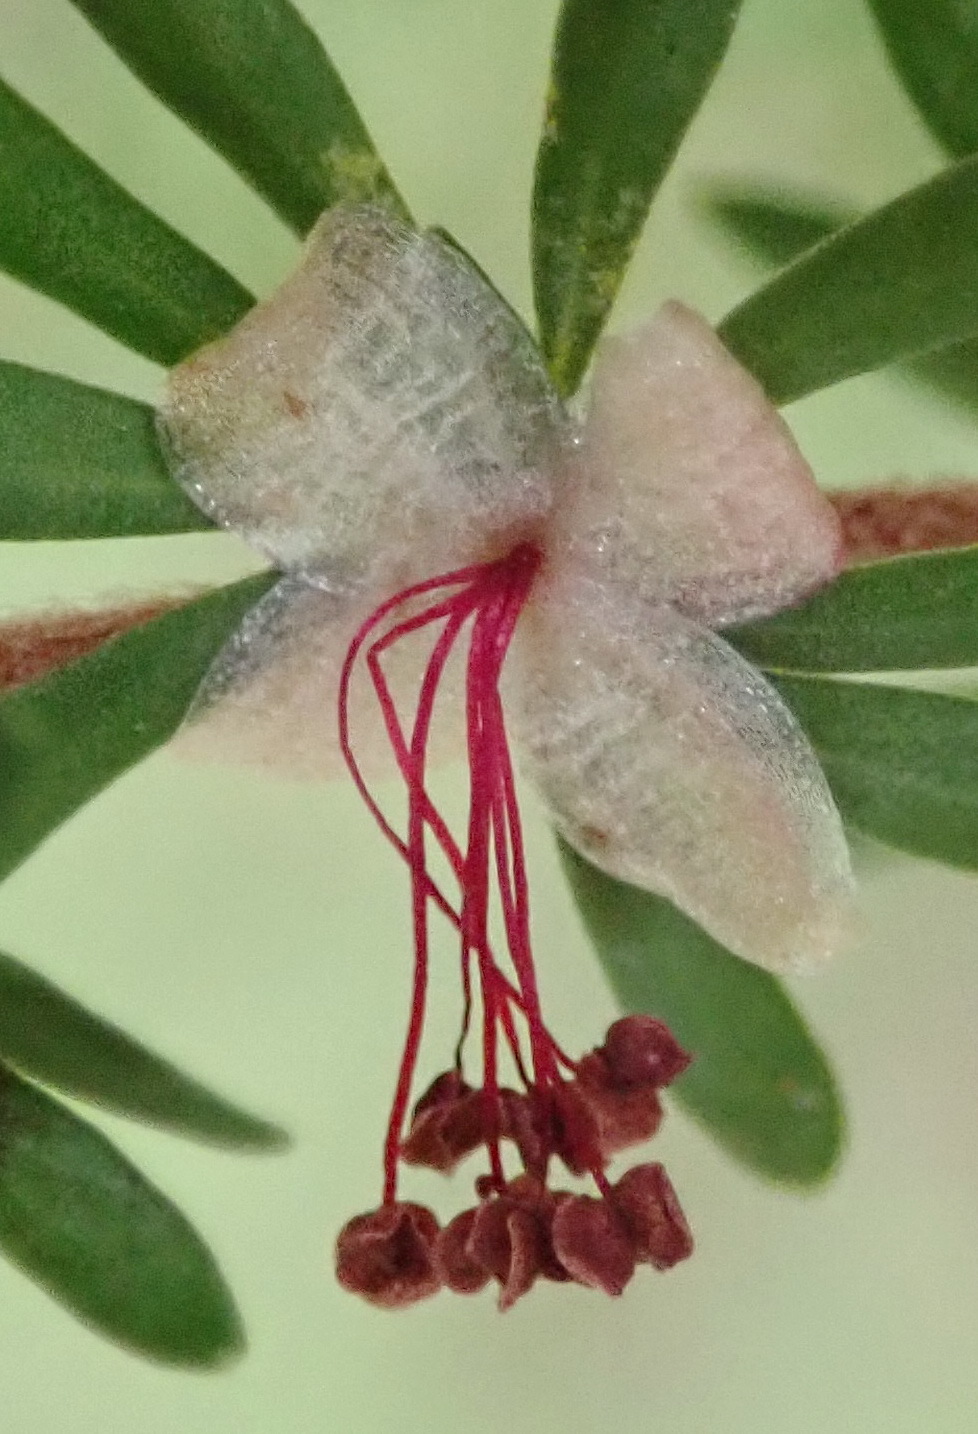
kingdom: Plantae
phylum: Tracheophyta
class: Magnoliopsida
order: Rosales
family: Rosaceae
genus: Cliffortia
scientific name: Cliffortia serpyllifolia
